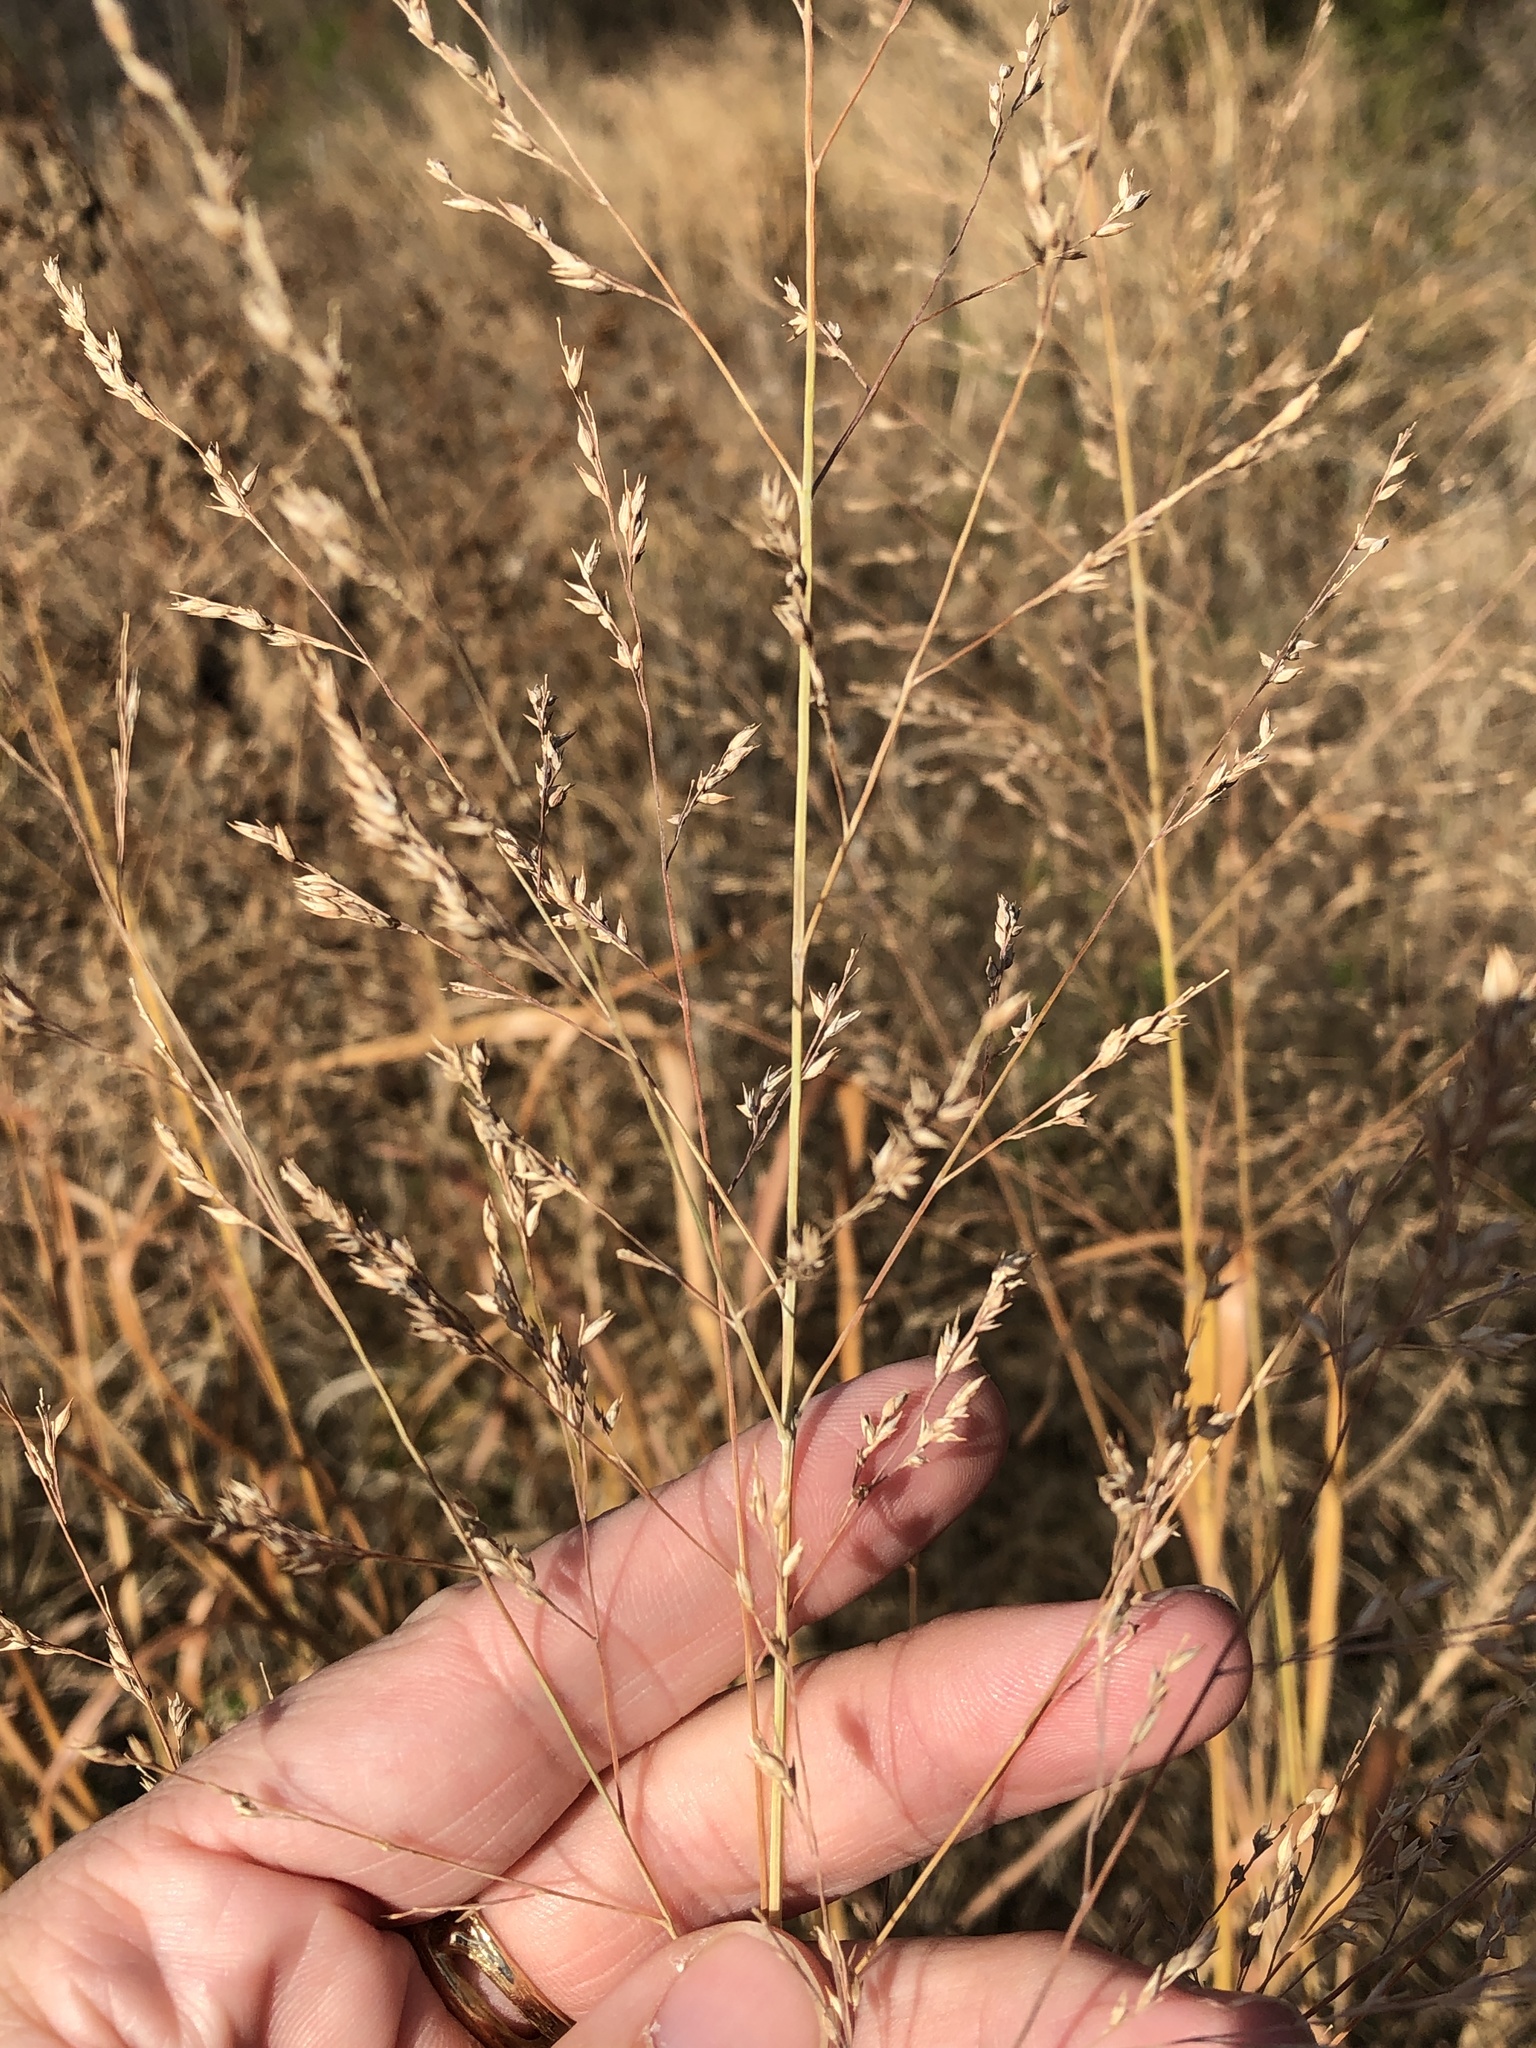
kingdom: Plantae
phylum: Tracheophyta
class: Liliopsida
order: Poales
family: Poaceae
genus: Panicum
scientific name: Panicum virgatum
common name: Switchgrass
